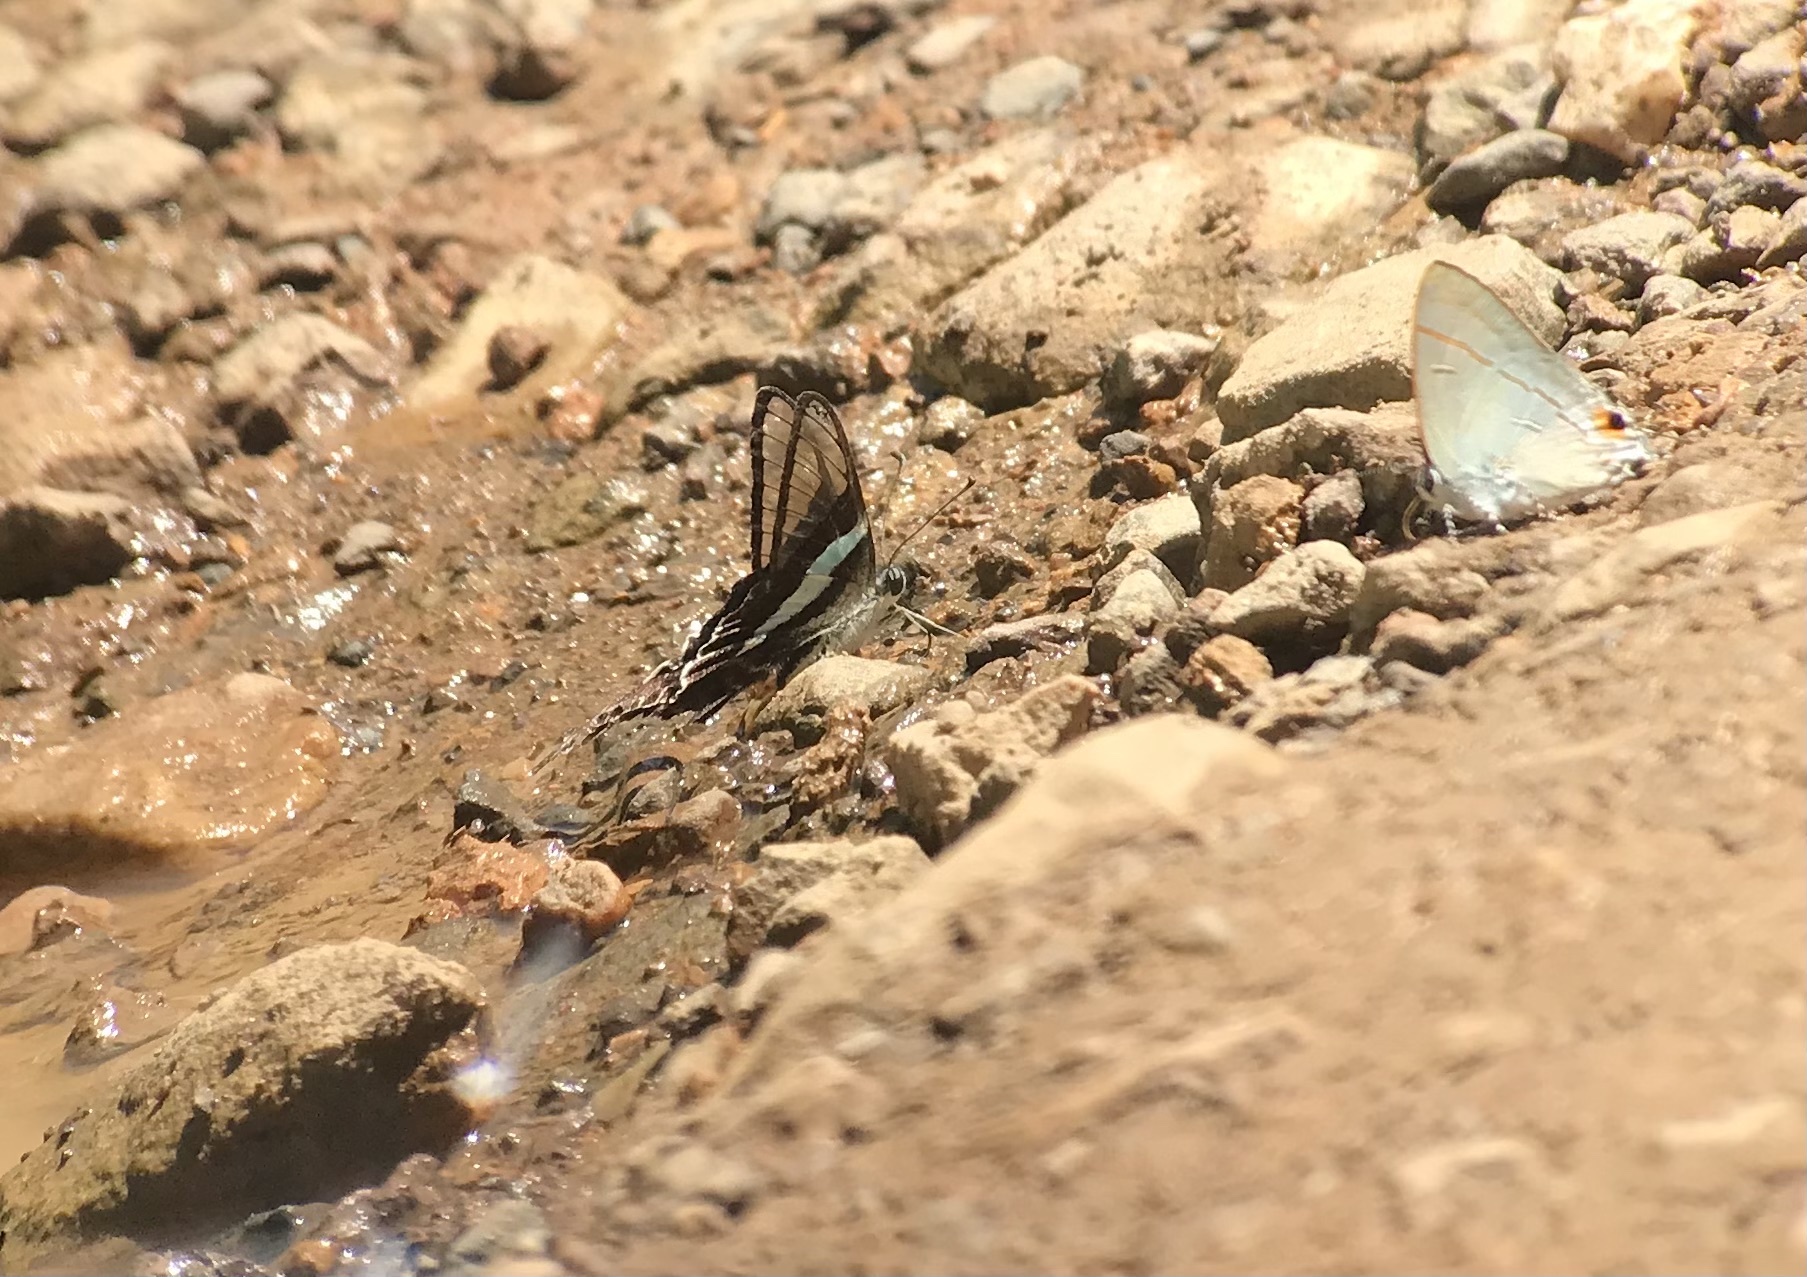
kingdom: Animalia
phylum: Arthropoda
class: Insecta
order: Lepidoptera
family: Papilionidae
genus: Lamproptera
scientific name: Lamproptera meges
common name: Green dragontail
